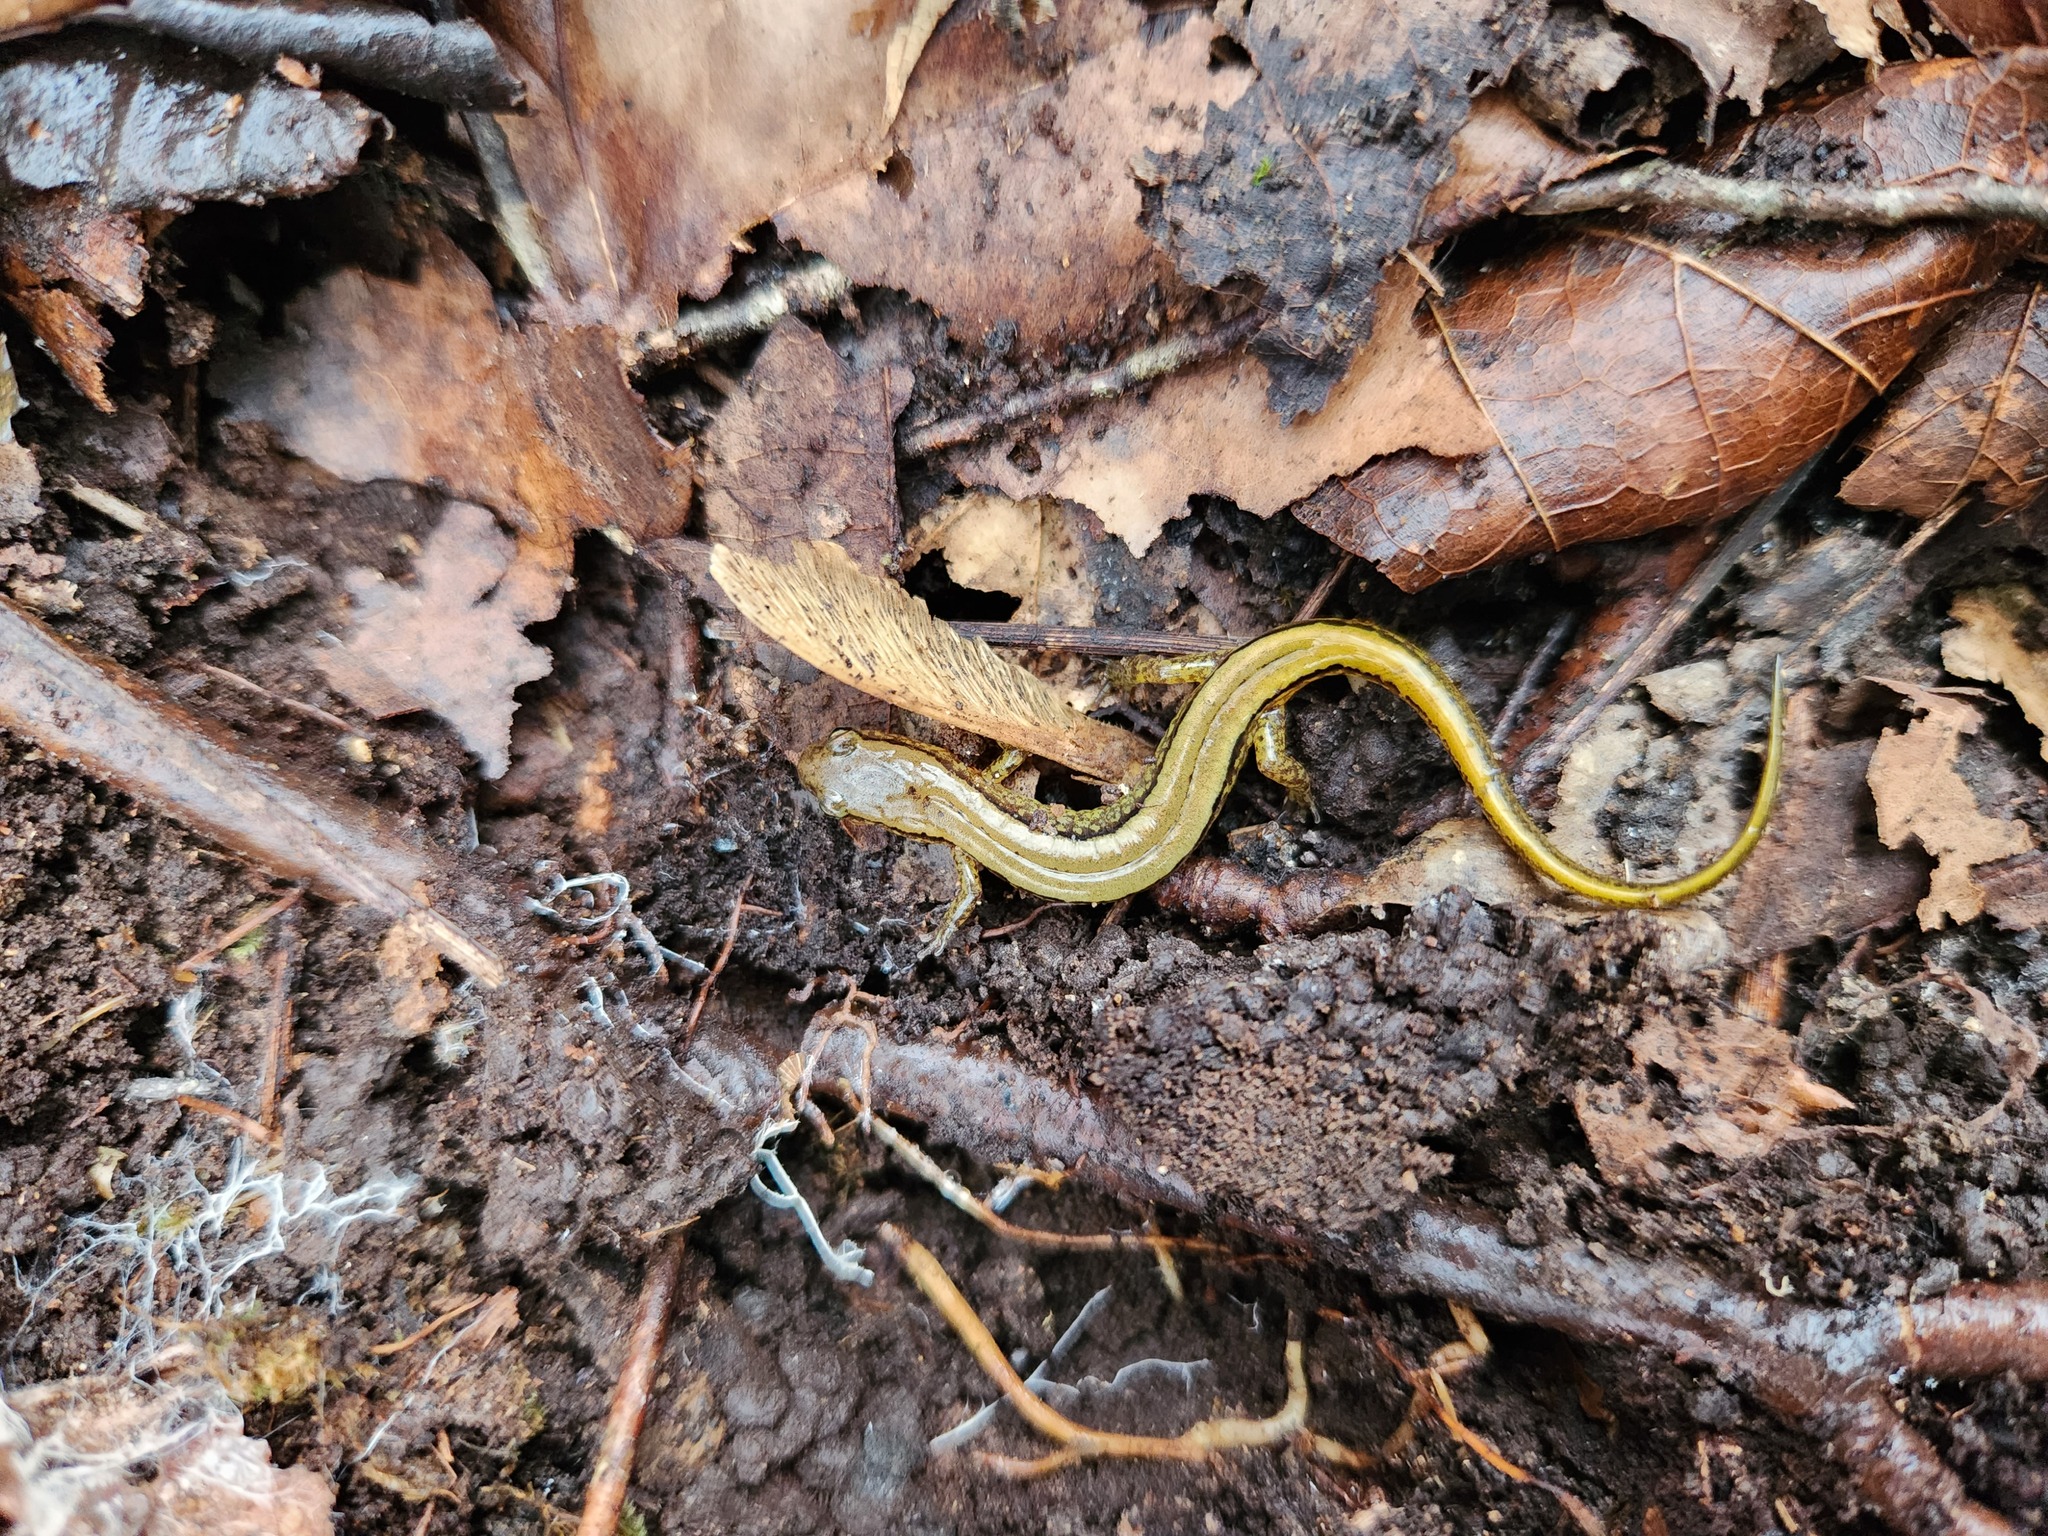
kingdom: Animalia
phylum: Chordata
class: Amphibia
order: Caudata
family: Plethodontidae
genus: Eurycea
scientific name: Eurycea cirrigera
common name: Southern two-lined salamander
